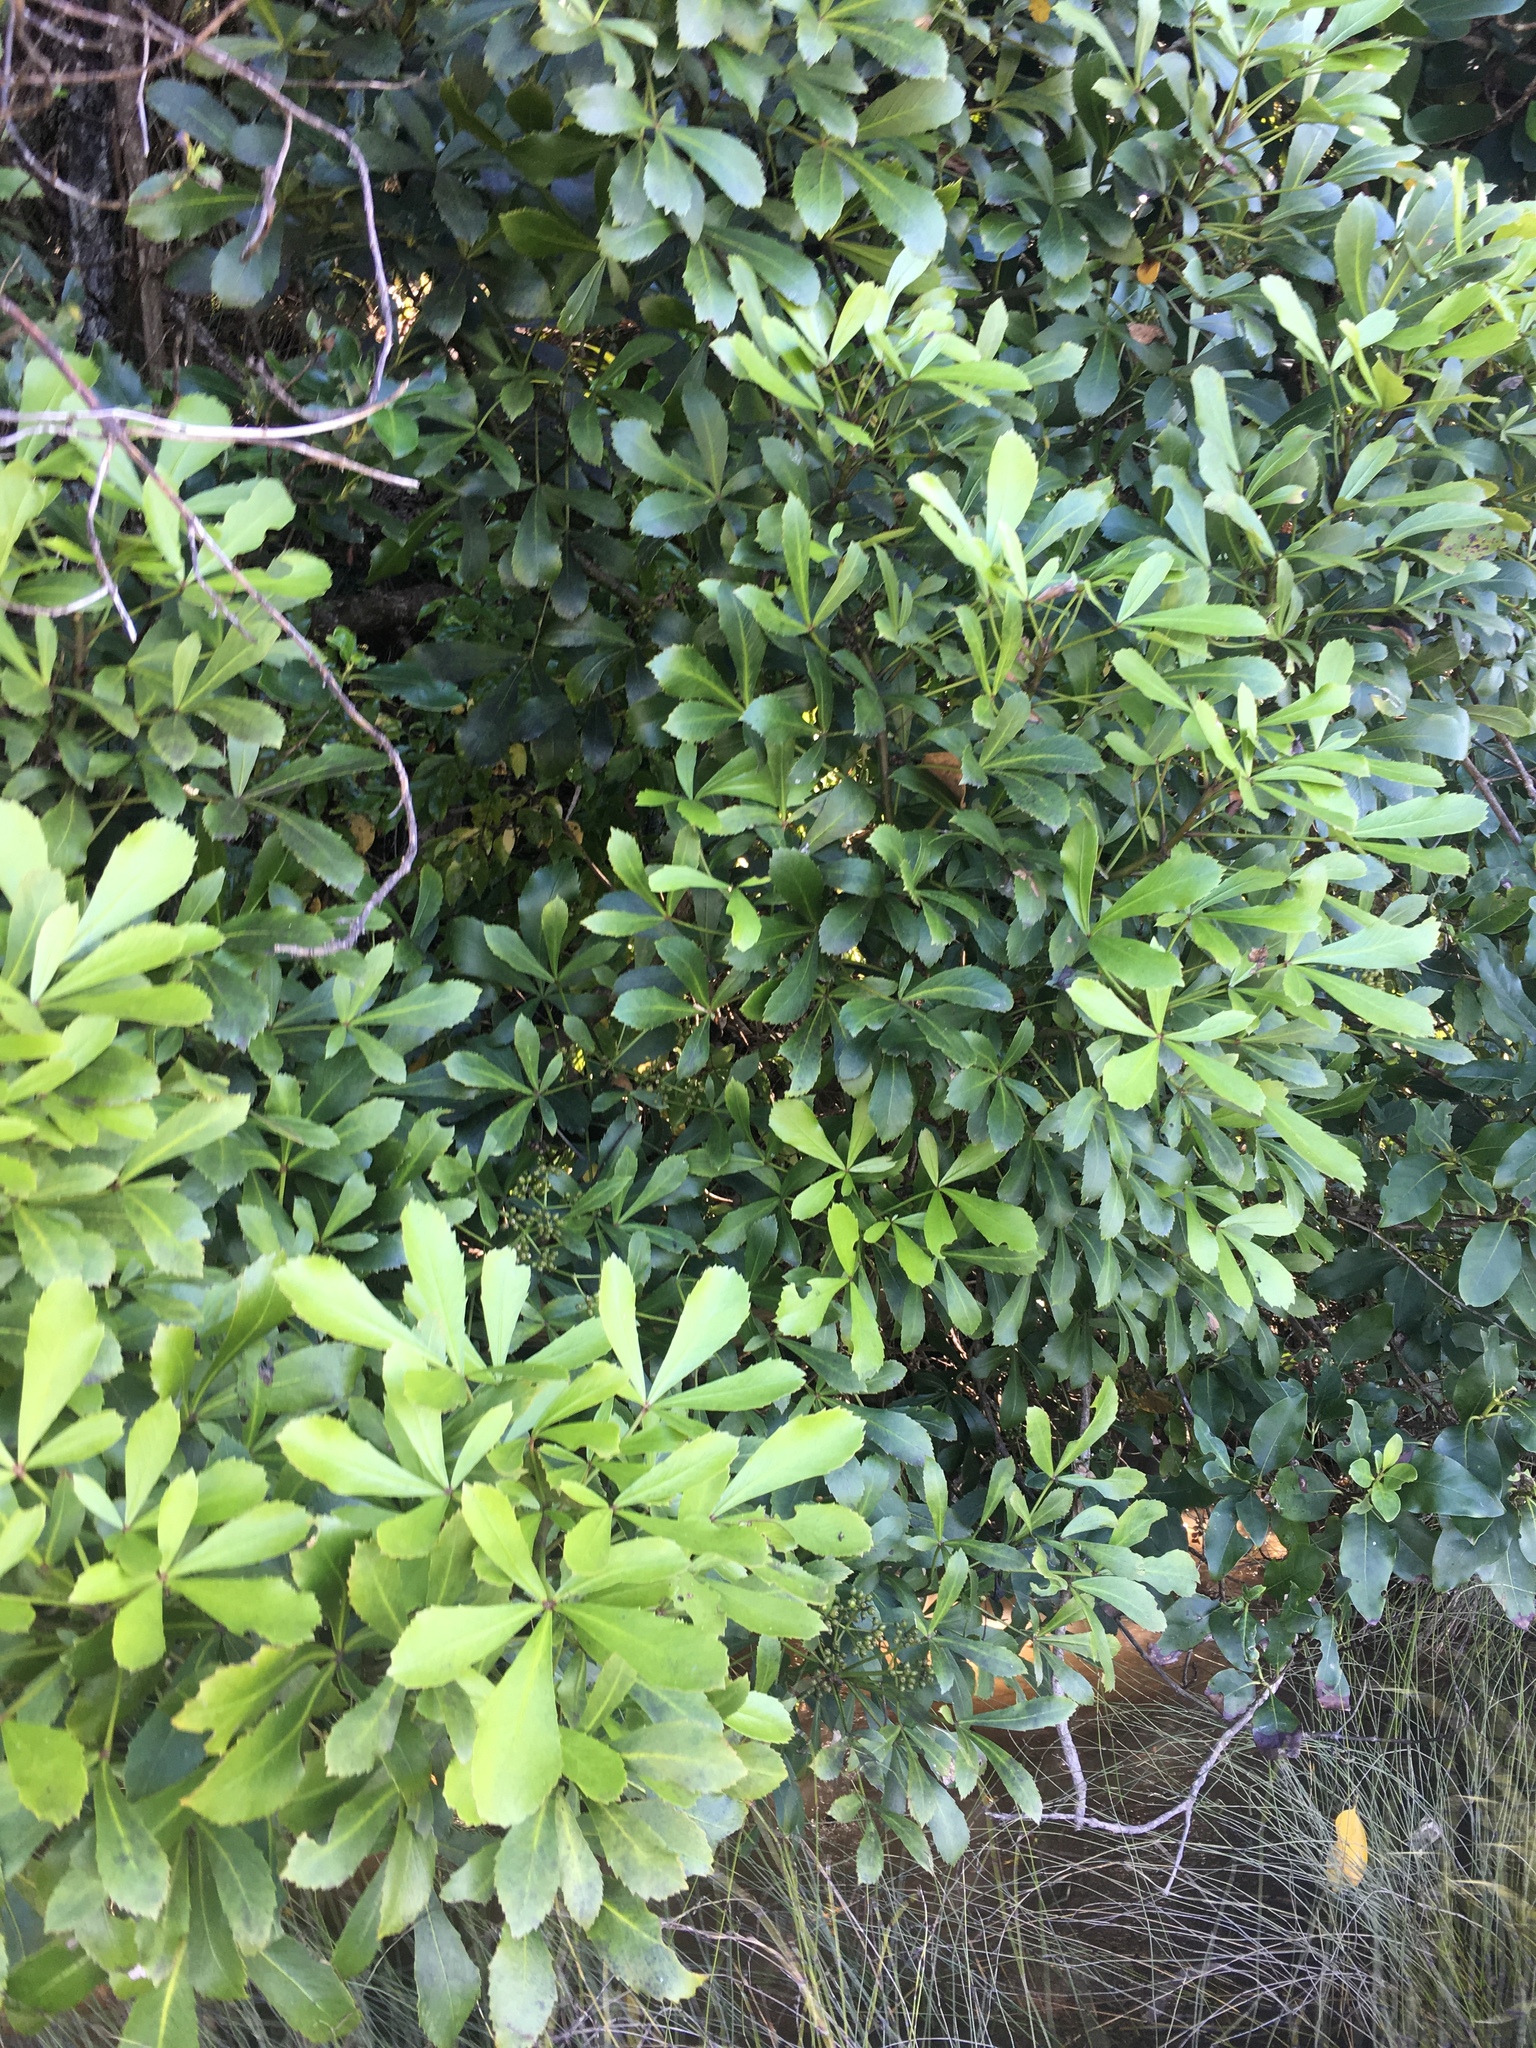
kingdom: Plantae
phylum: Tracheophyta
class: Magnoliopsida
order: Apiales
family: Araliaceae
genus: Pseudopanax
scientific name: Pseudopanax lessonii
